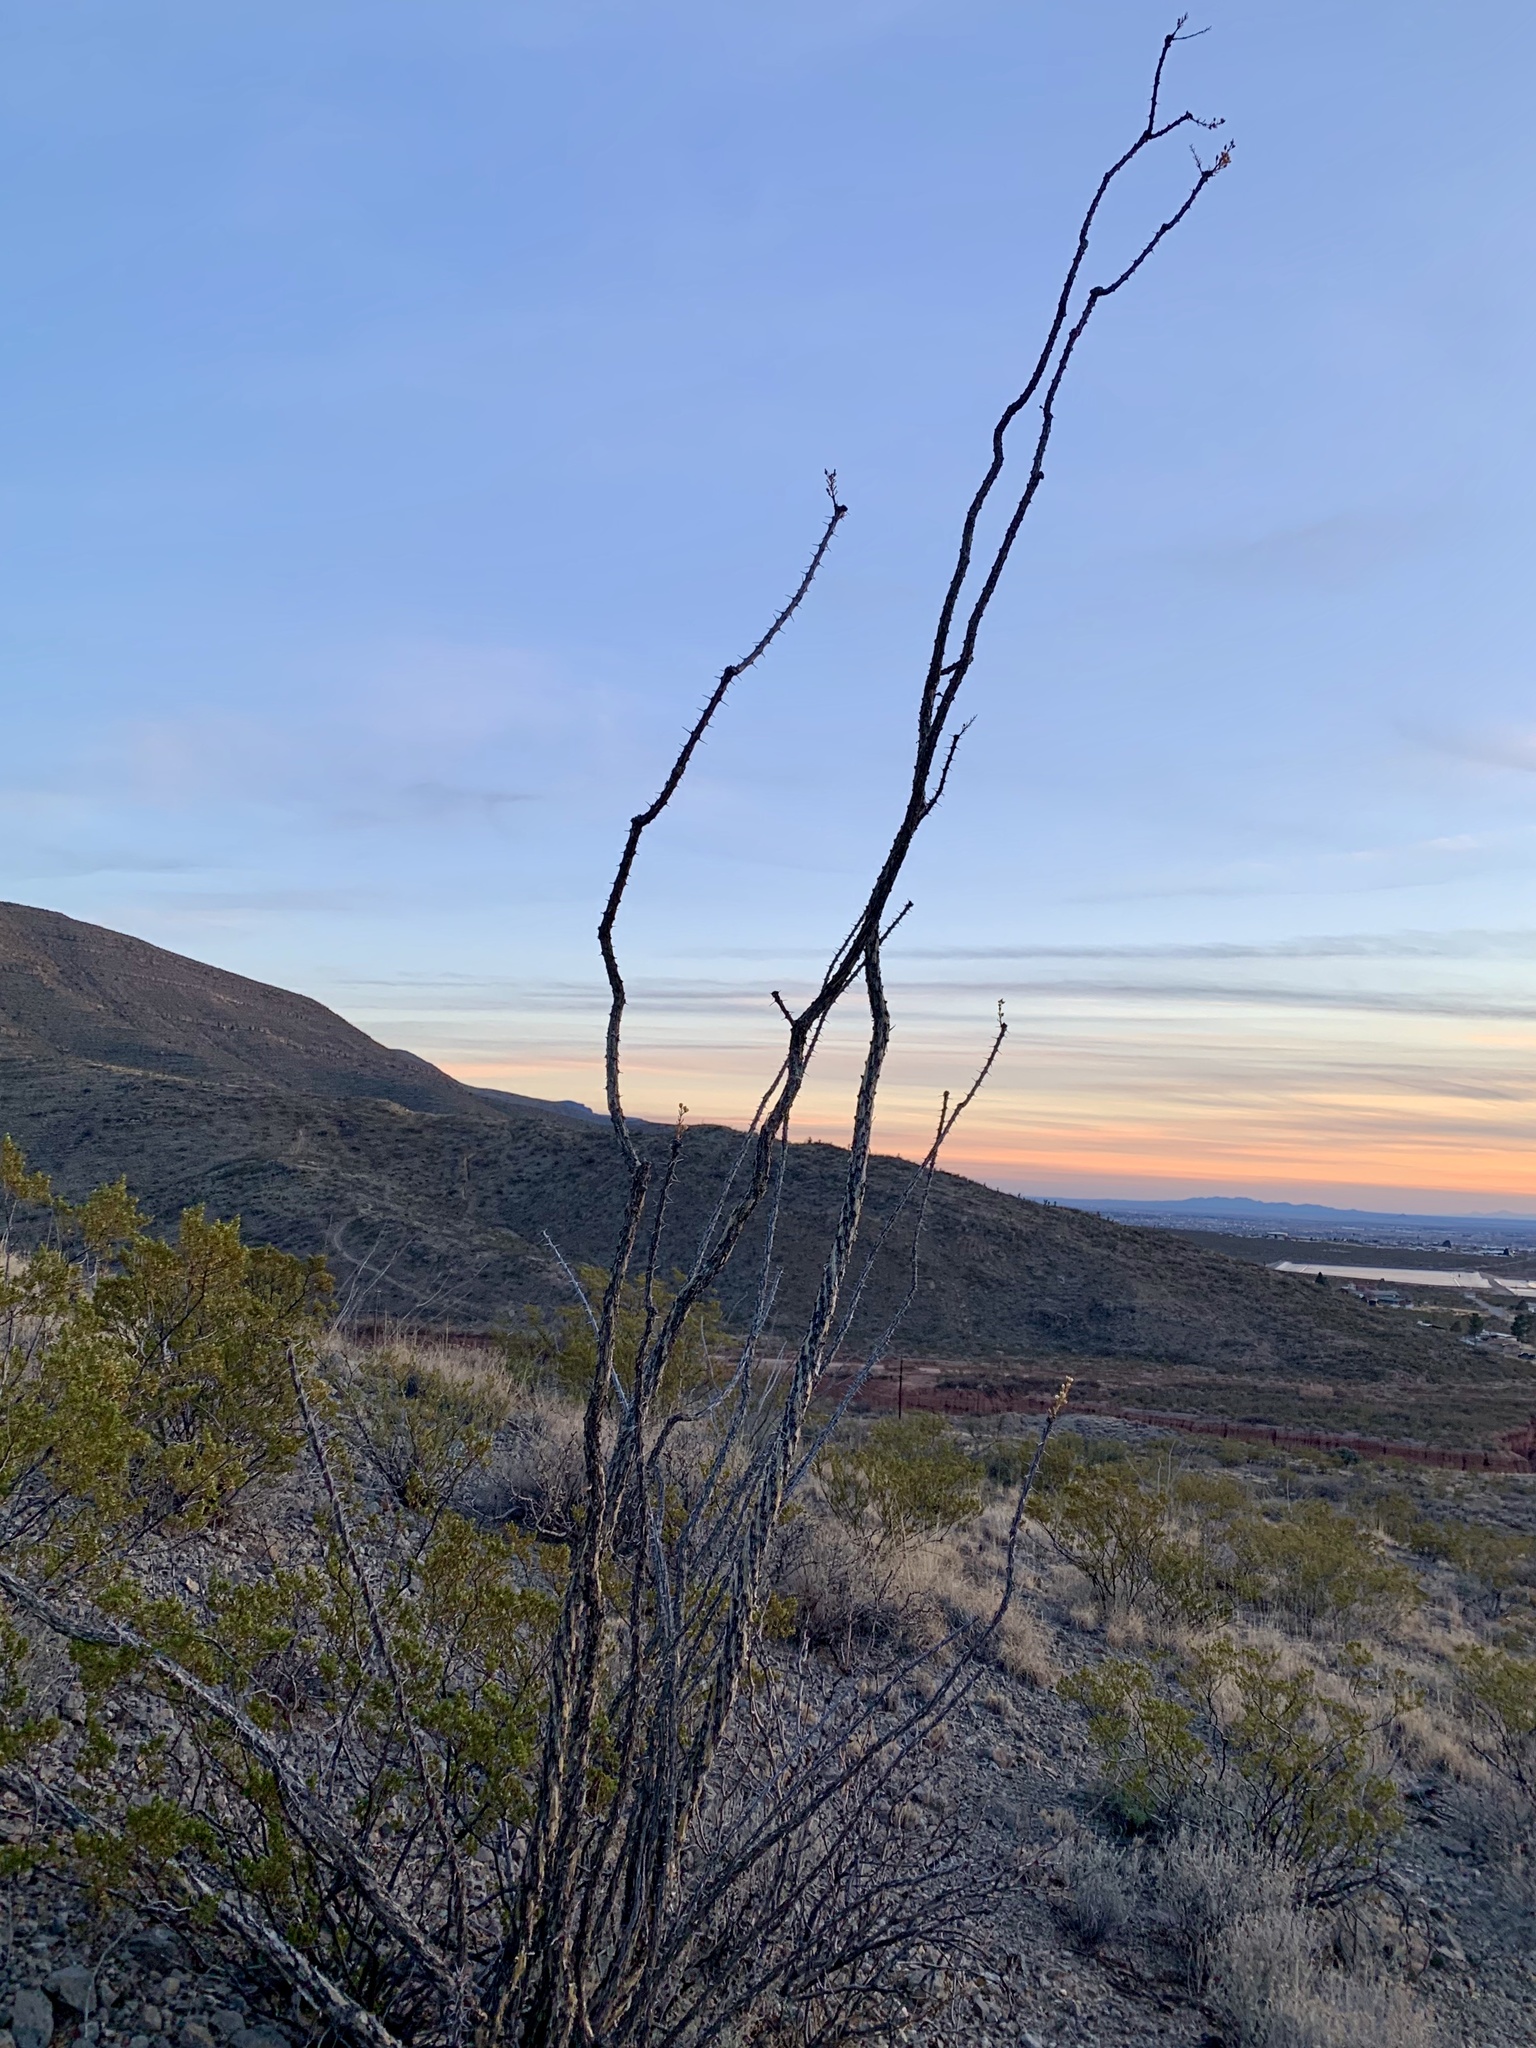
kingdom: Plantae
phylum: Tracheophyta
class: Magnoliopsida
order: Ericales
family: Fouquieriaceae
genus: Fouquieria
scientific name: Fouquieria splendens
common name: Vine-cactus
